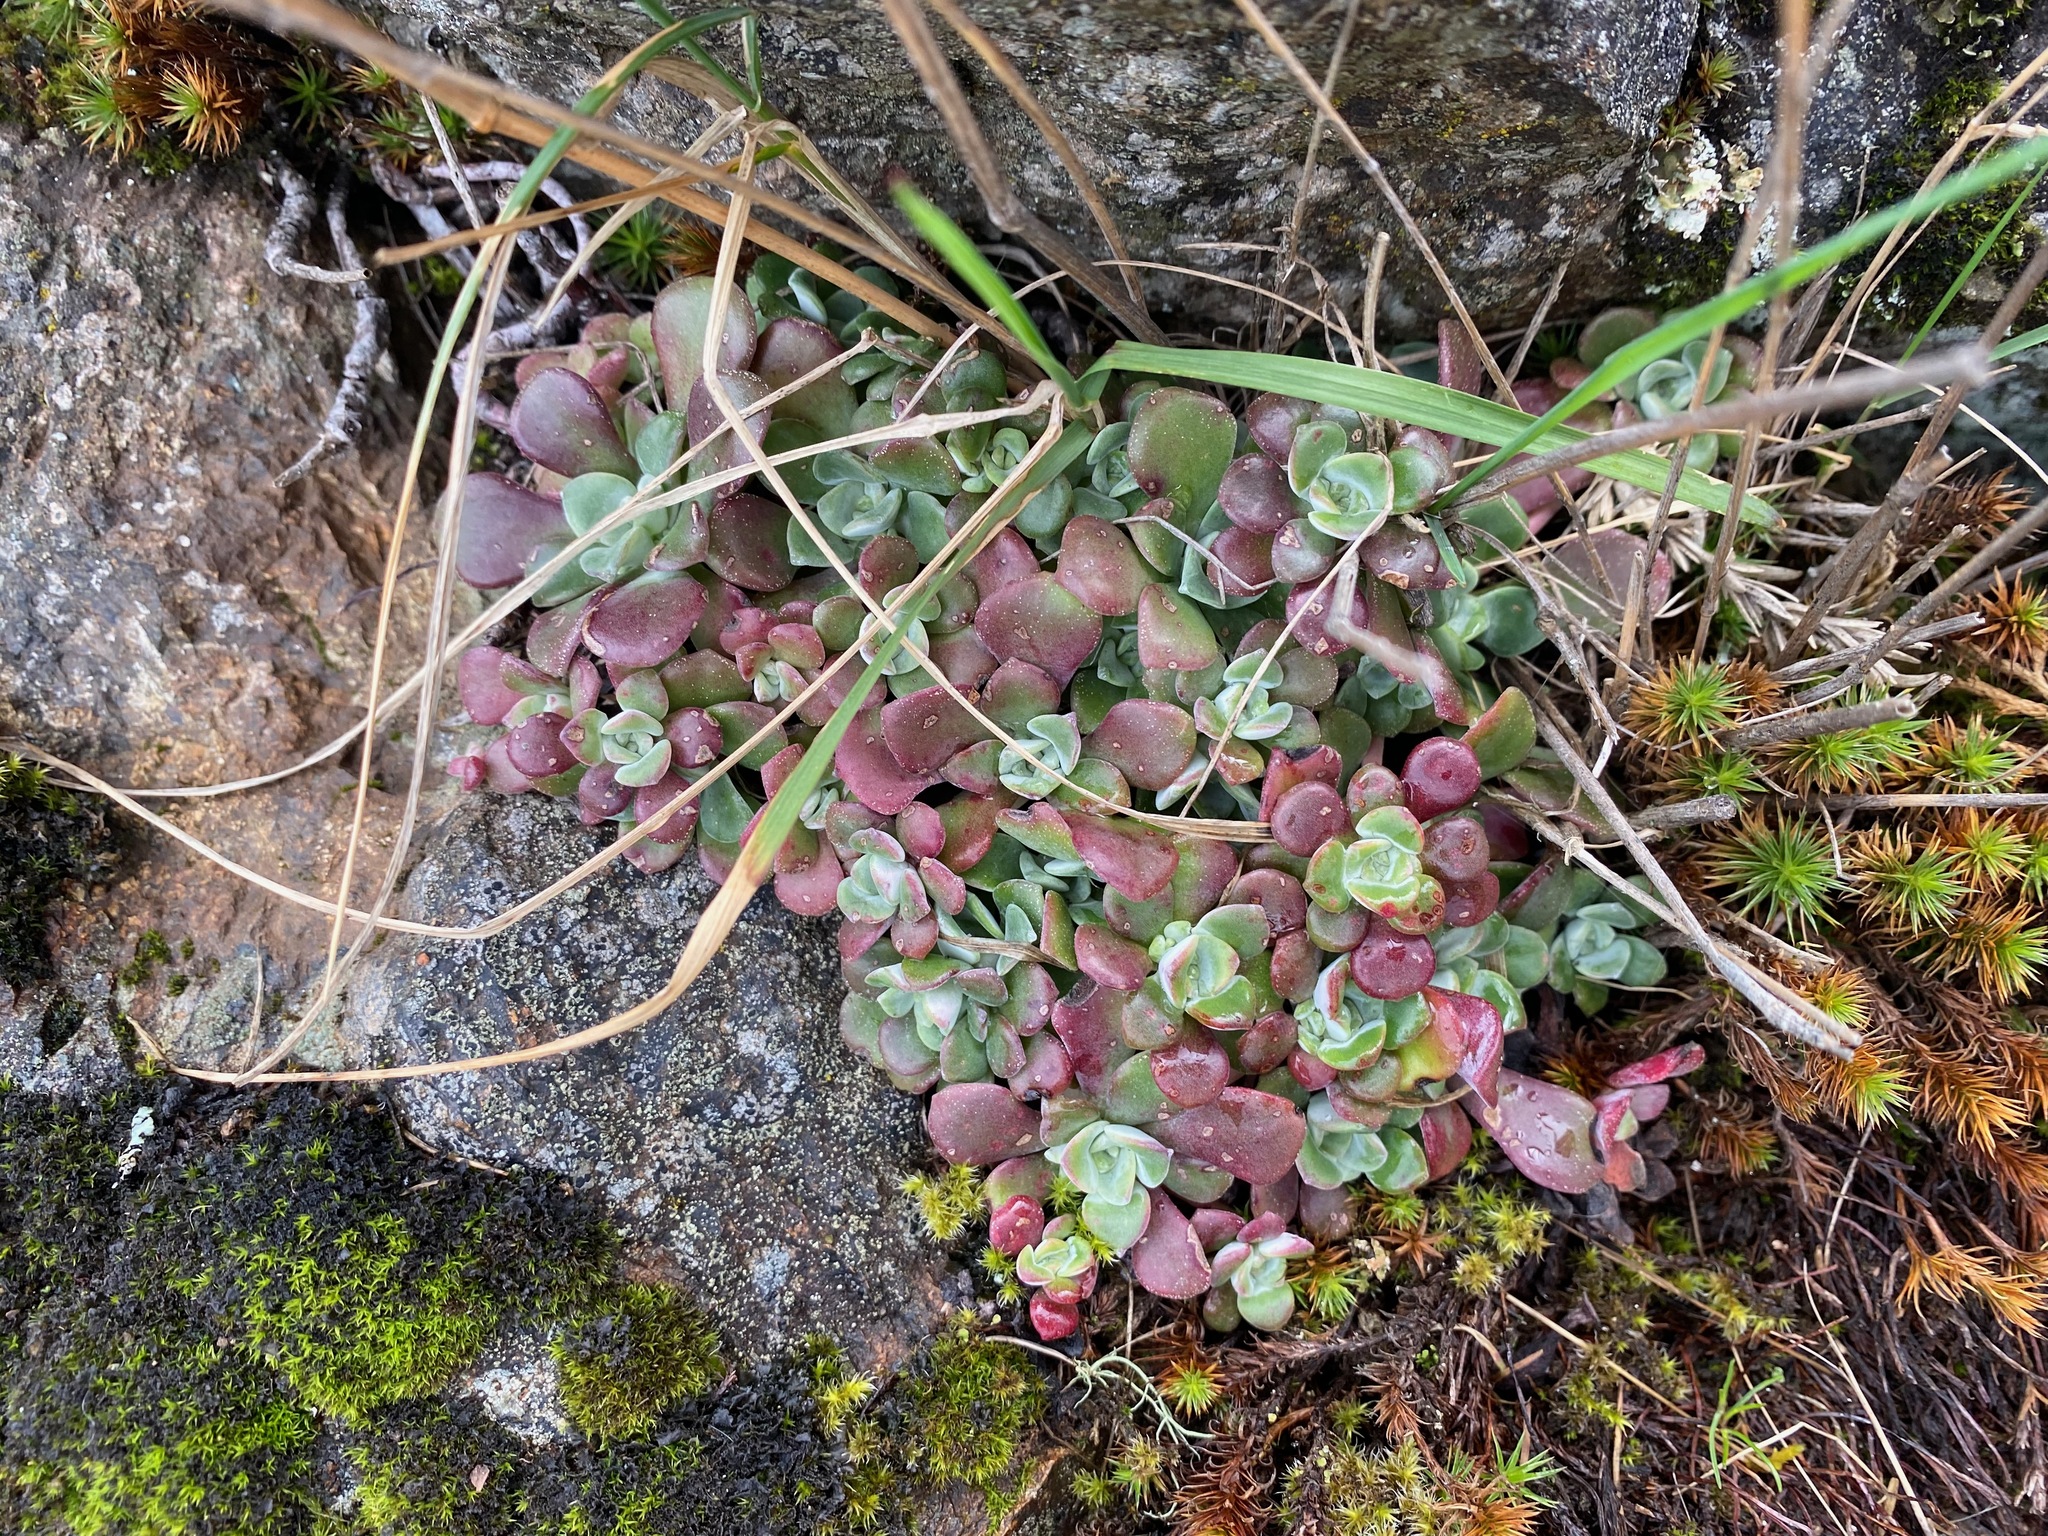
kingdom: Plantae
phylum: Tracheophyta
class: Magnoliopsida
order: Saxifragales
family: Crassulaceae
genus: Sedum
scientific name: Sedum spathulifolium
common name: Colorado stonecrop
